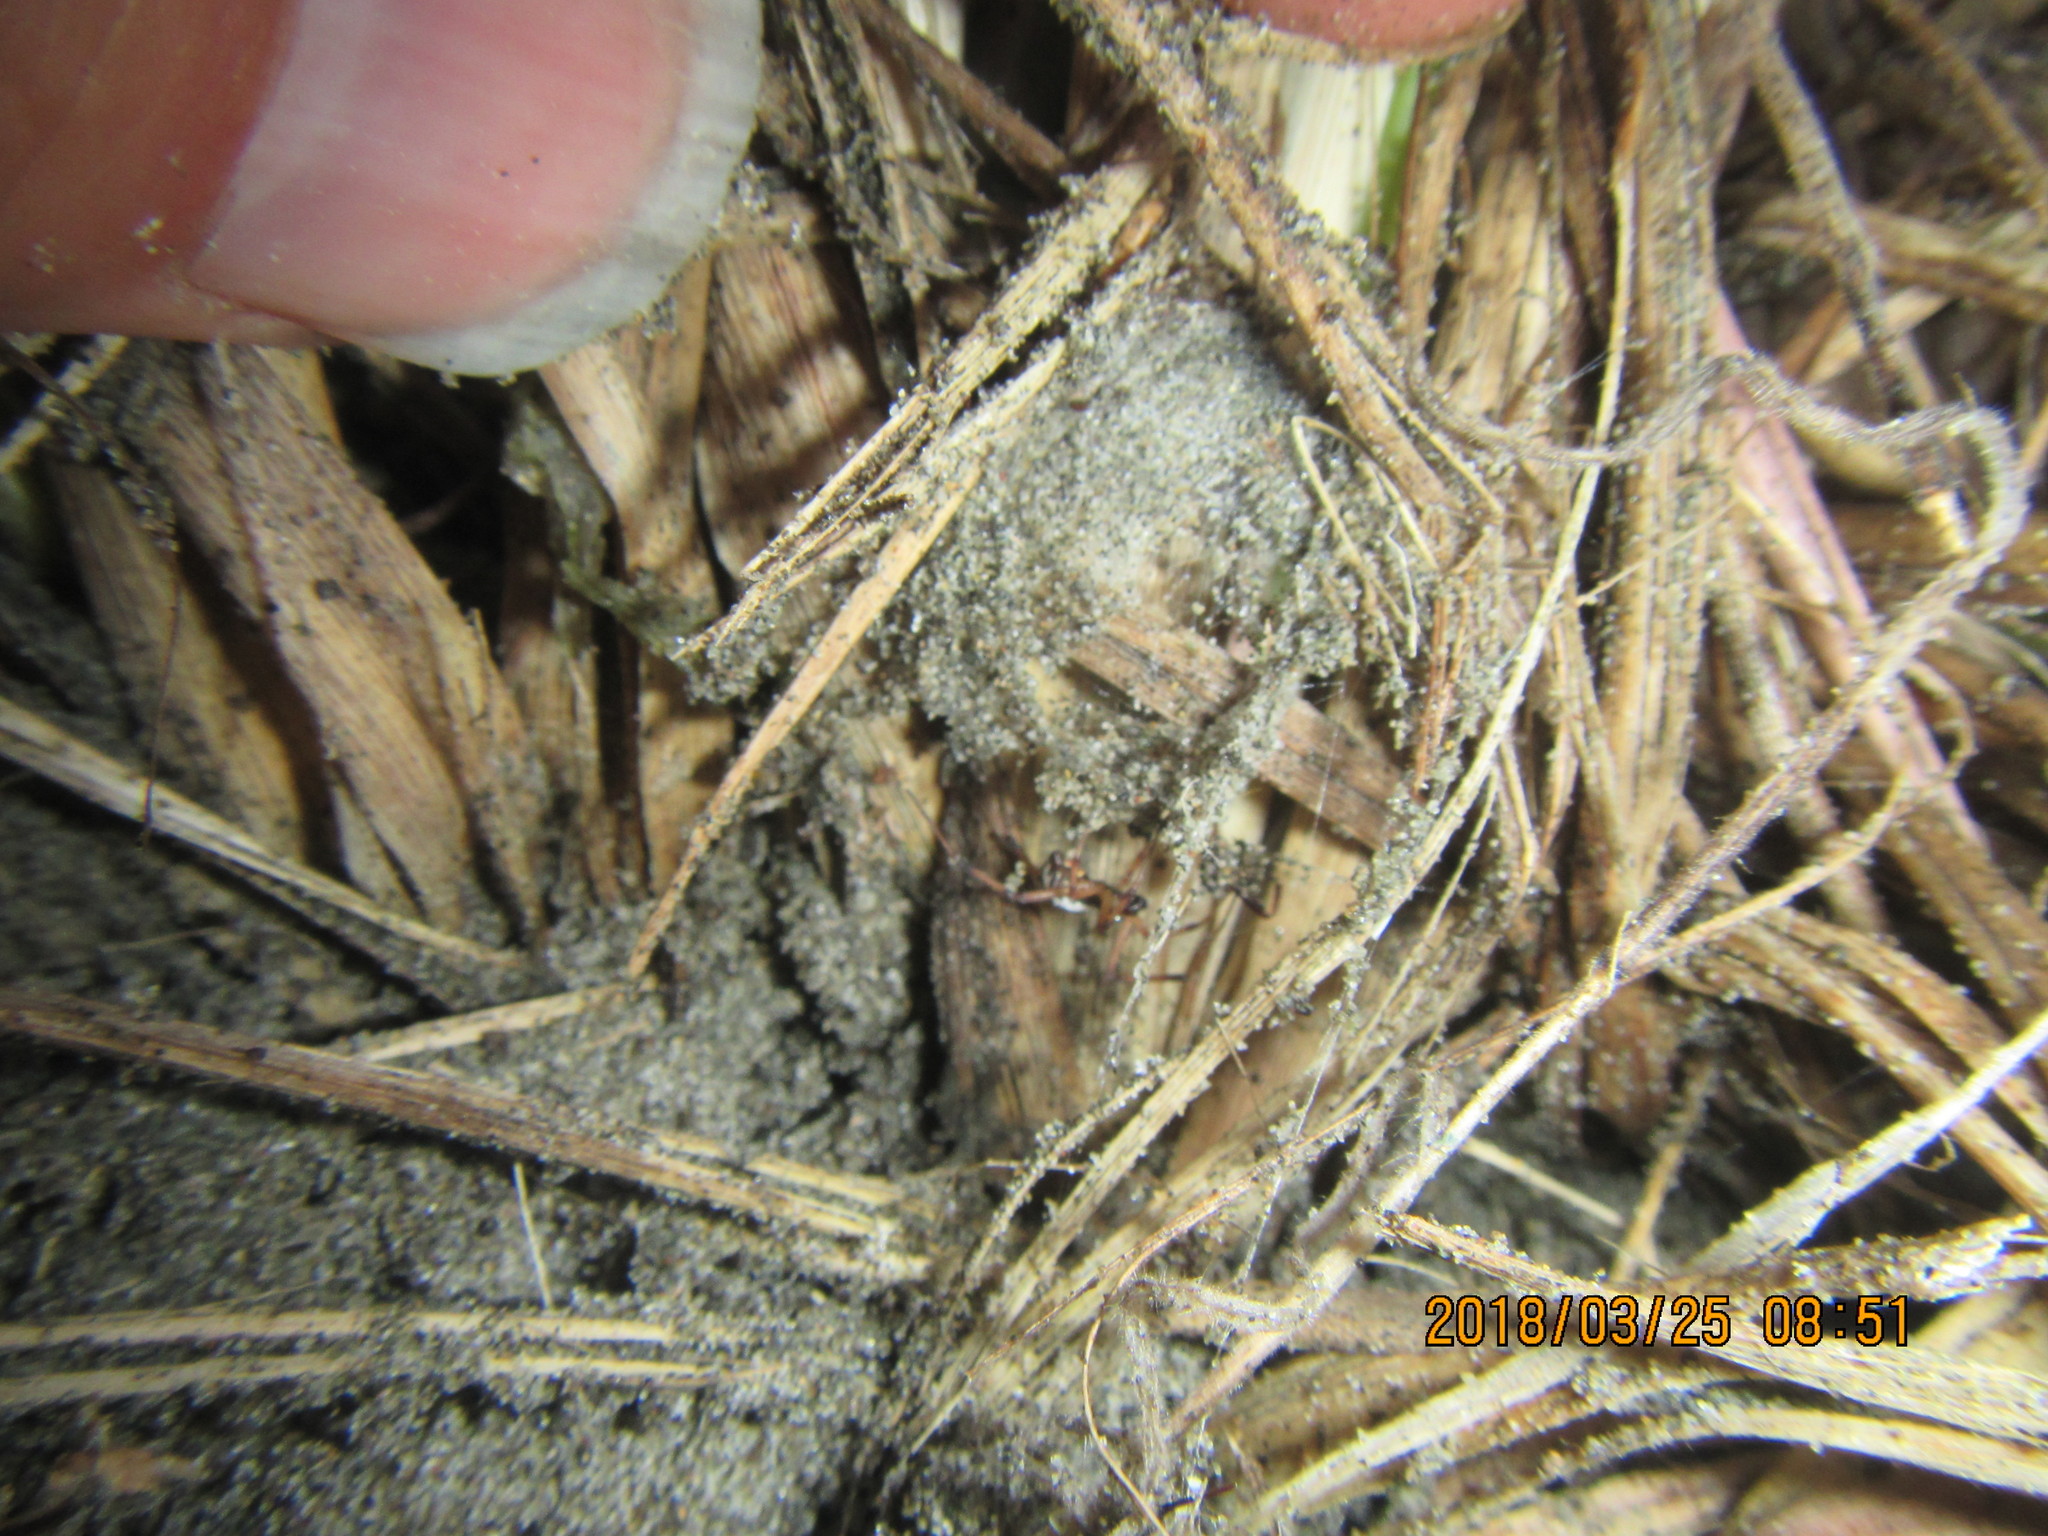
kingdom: Animalia
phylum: Arthropoda
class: Arachnida
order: Araneae
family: Theridiidae
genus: Latrodectus
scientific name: Latrodectus katipo
